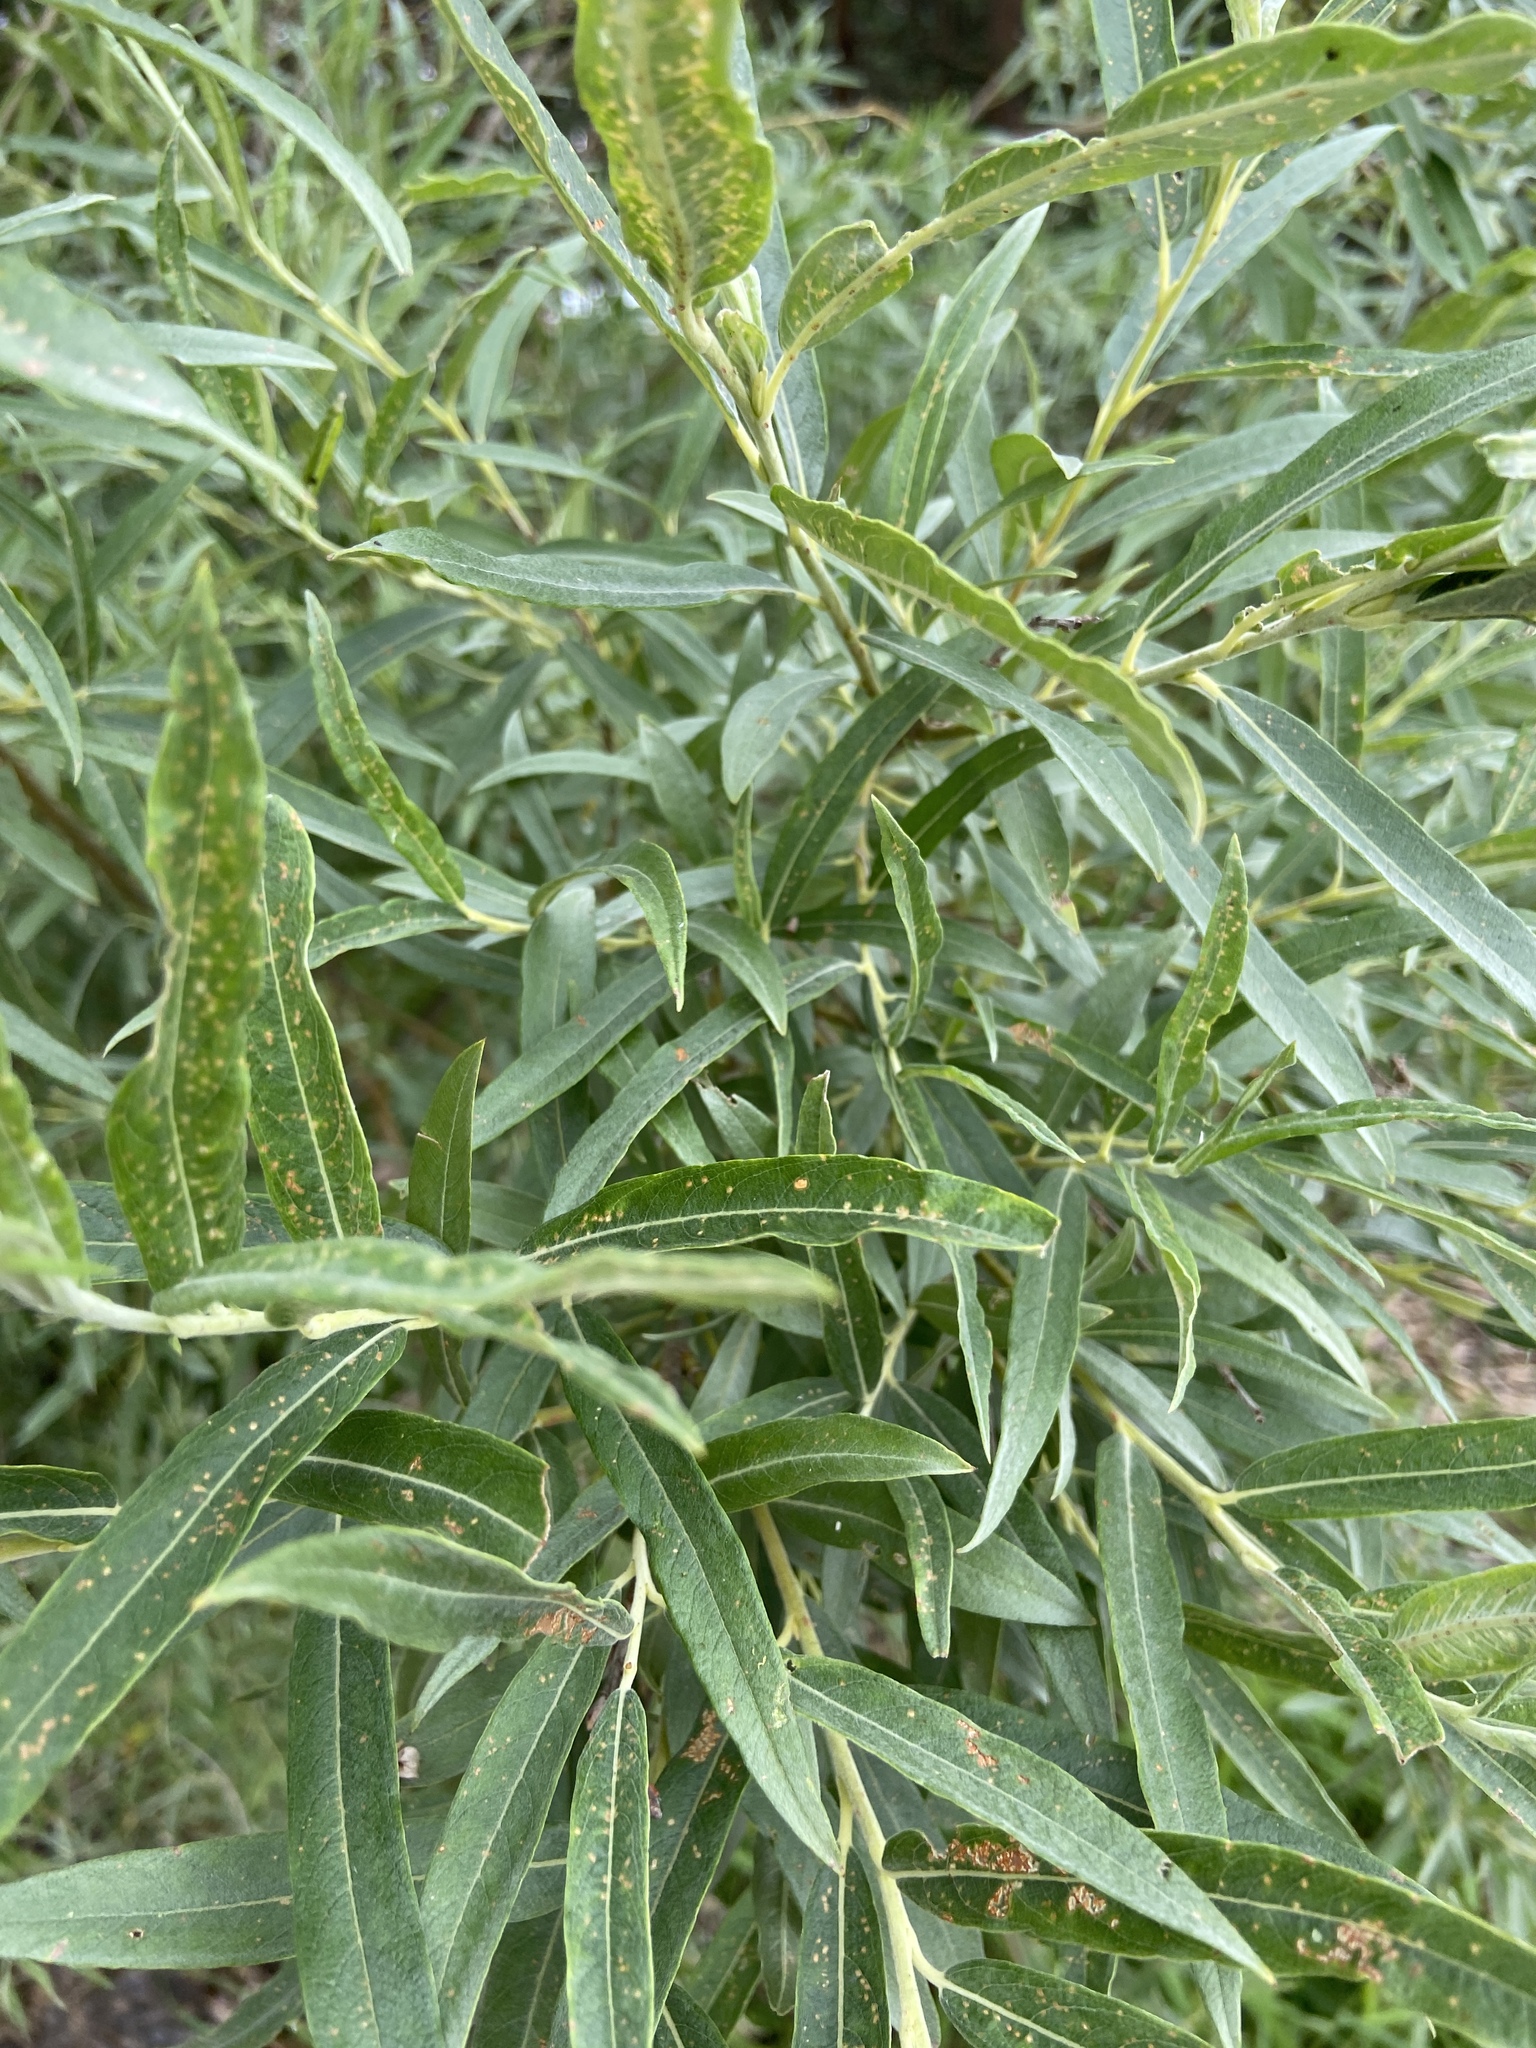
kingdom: Plantae
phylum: Tracheophyta
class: Magnoliopsida
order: Malpighiales
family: Salicaceae
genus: Salix
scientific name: Salix viminalis
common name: Osier
